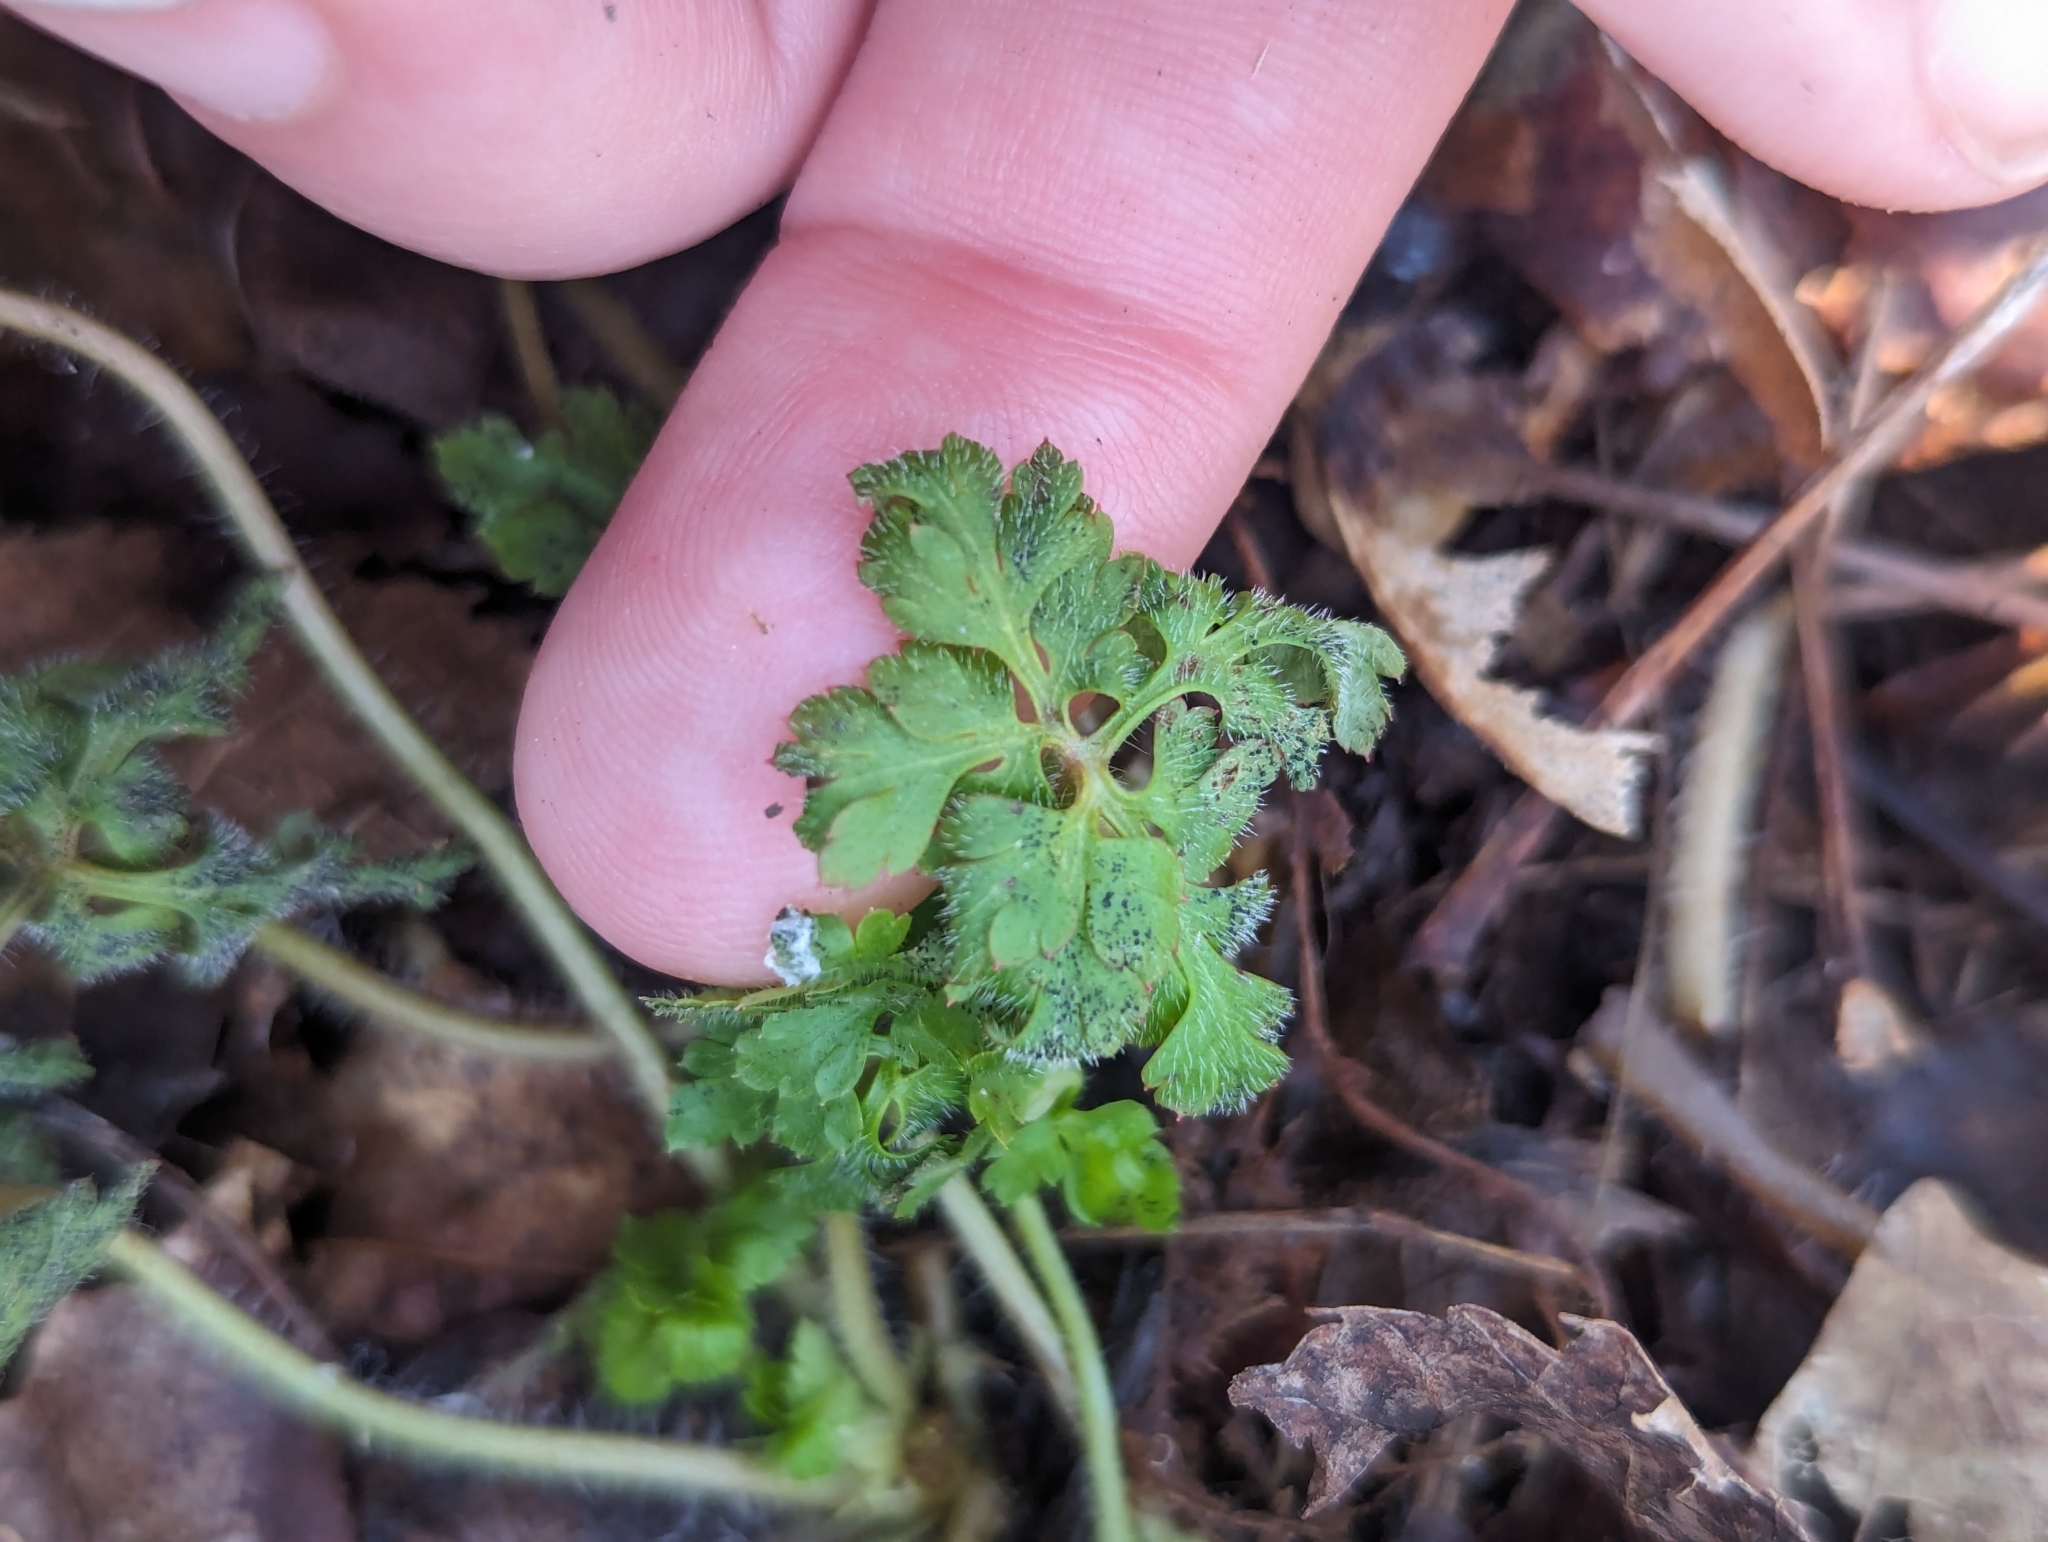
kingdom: Plantae
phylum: Tracheophyta
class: Magnoliopsida
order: Geraniales
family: Geraniaceae
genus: Geranium
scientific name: Geranium robertianum
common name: Herb-robert
